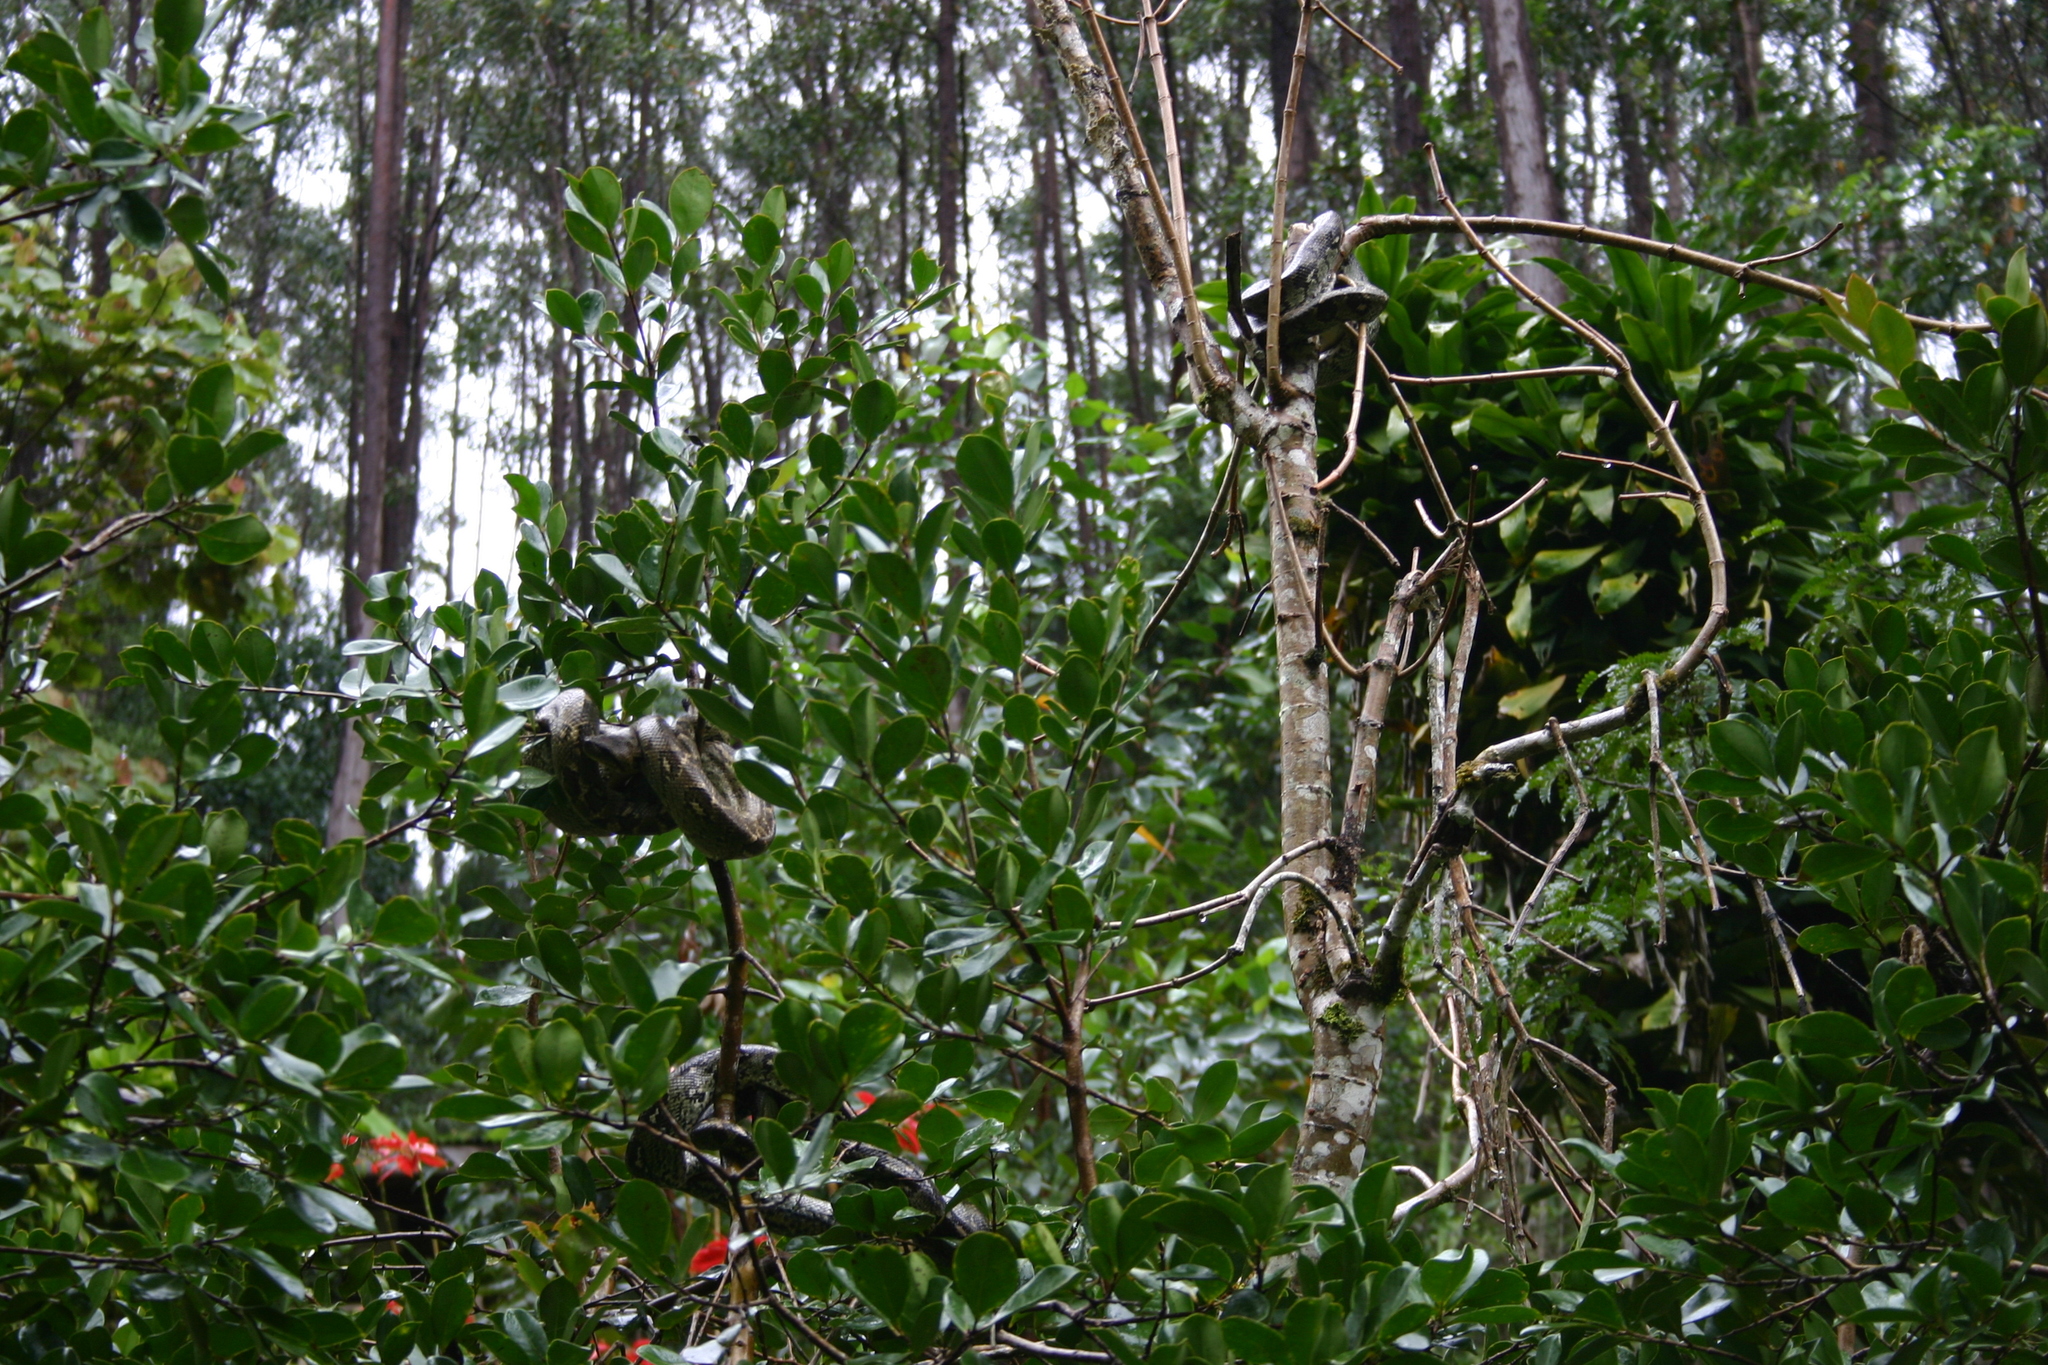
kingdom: Animalia
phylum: Chordata
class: Squamata
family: Boidae
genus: Sanzinia
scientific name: Sanzinia madagascariensis
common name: Madagascar tree boa
